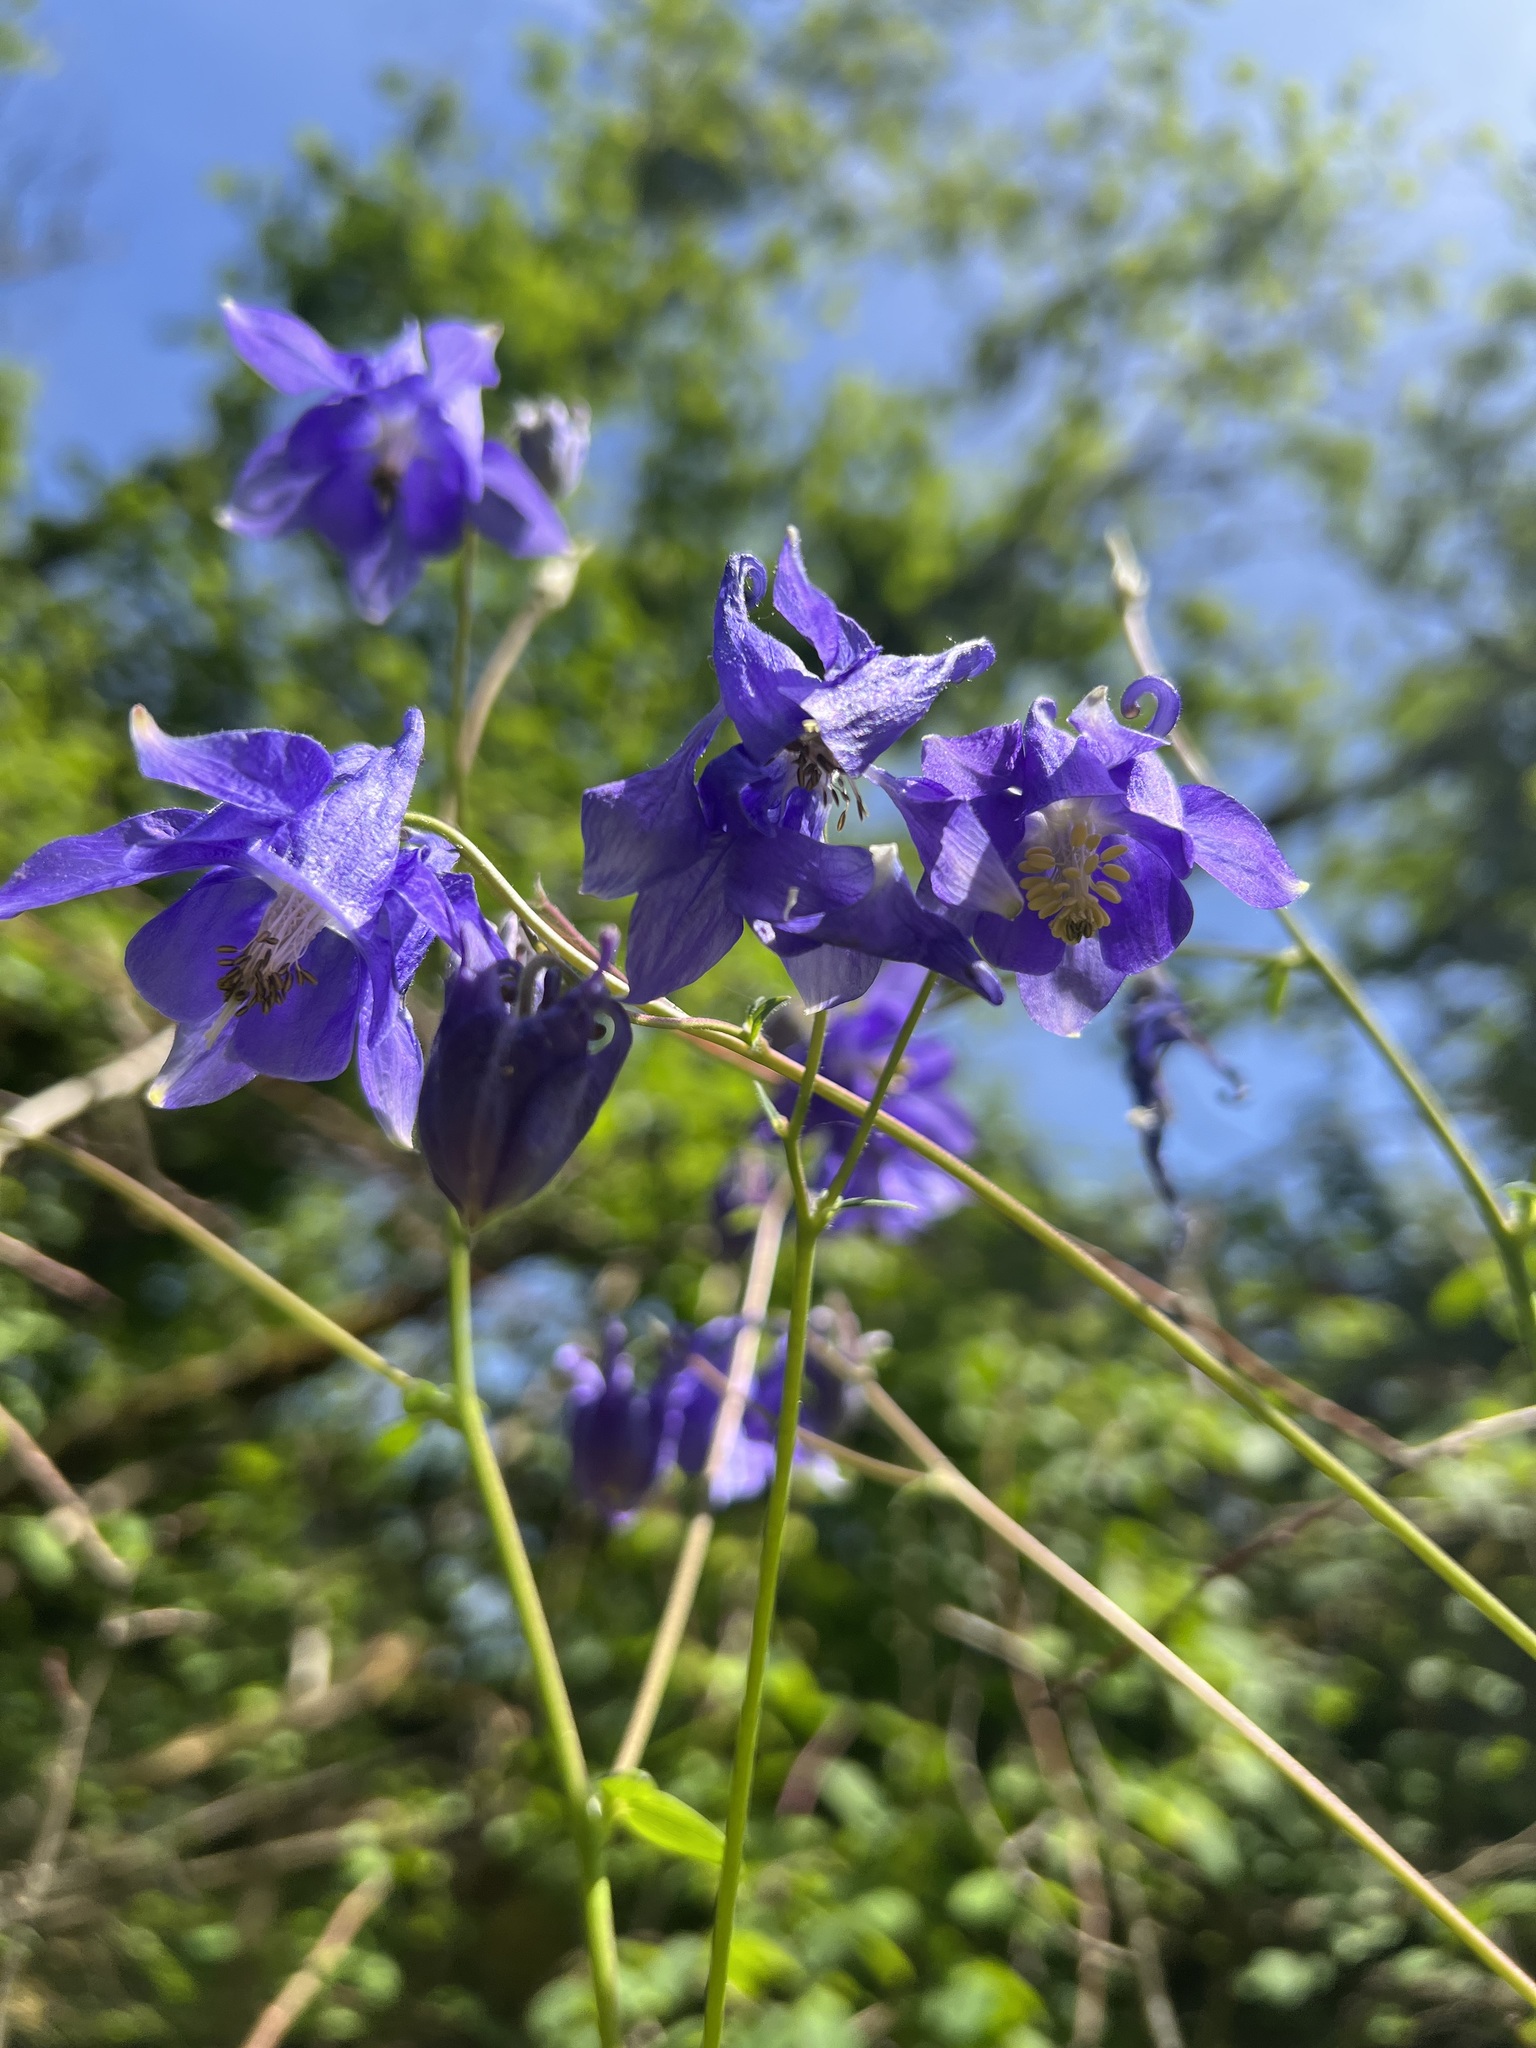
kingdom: Plantae
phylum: Tracheophyta
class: Magnoliopsida
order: Ranunculales
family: Ranunculaceae
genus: Aquilegia
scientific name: Aquilegia vulgaris
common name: Columbine
